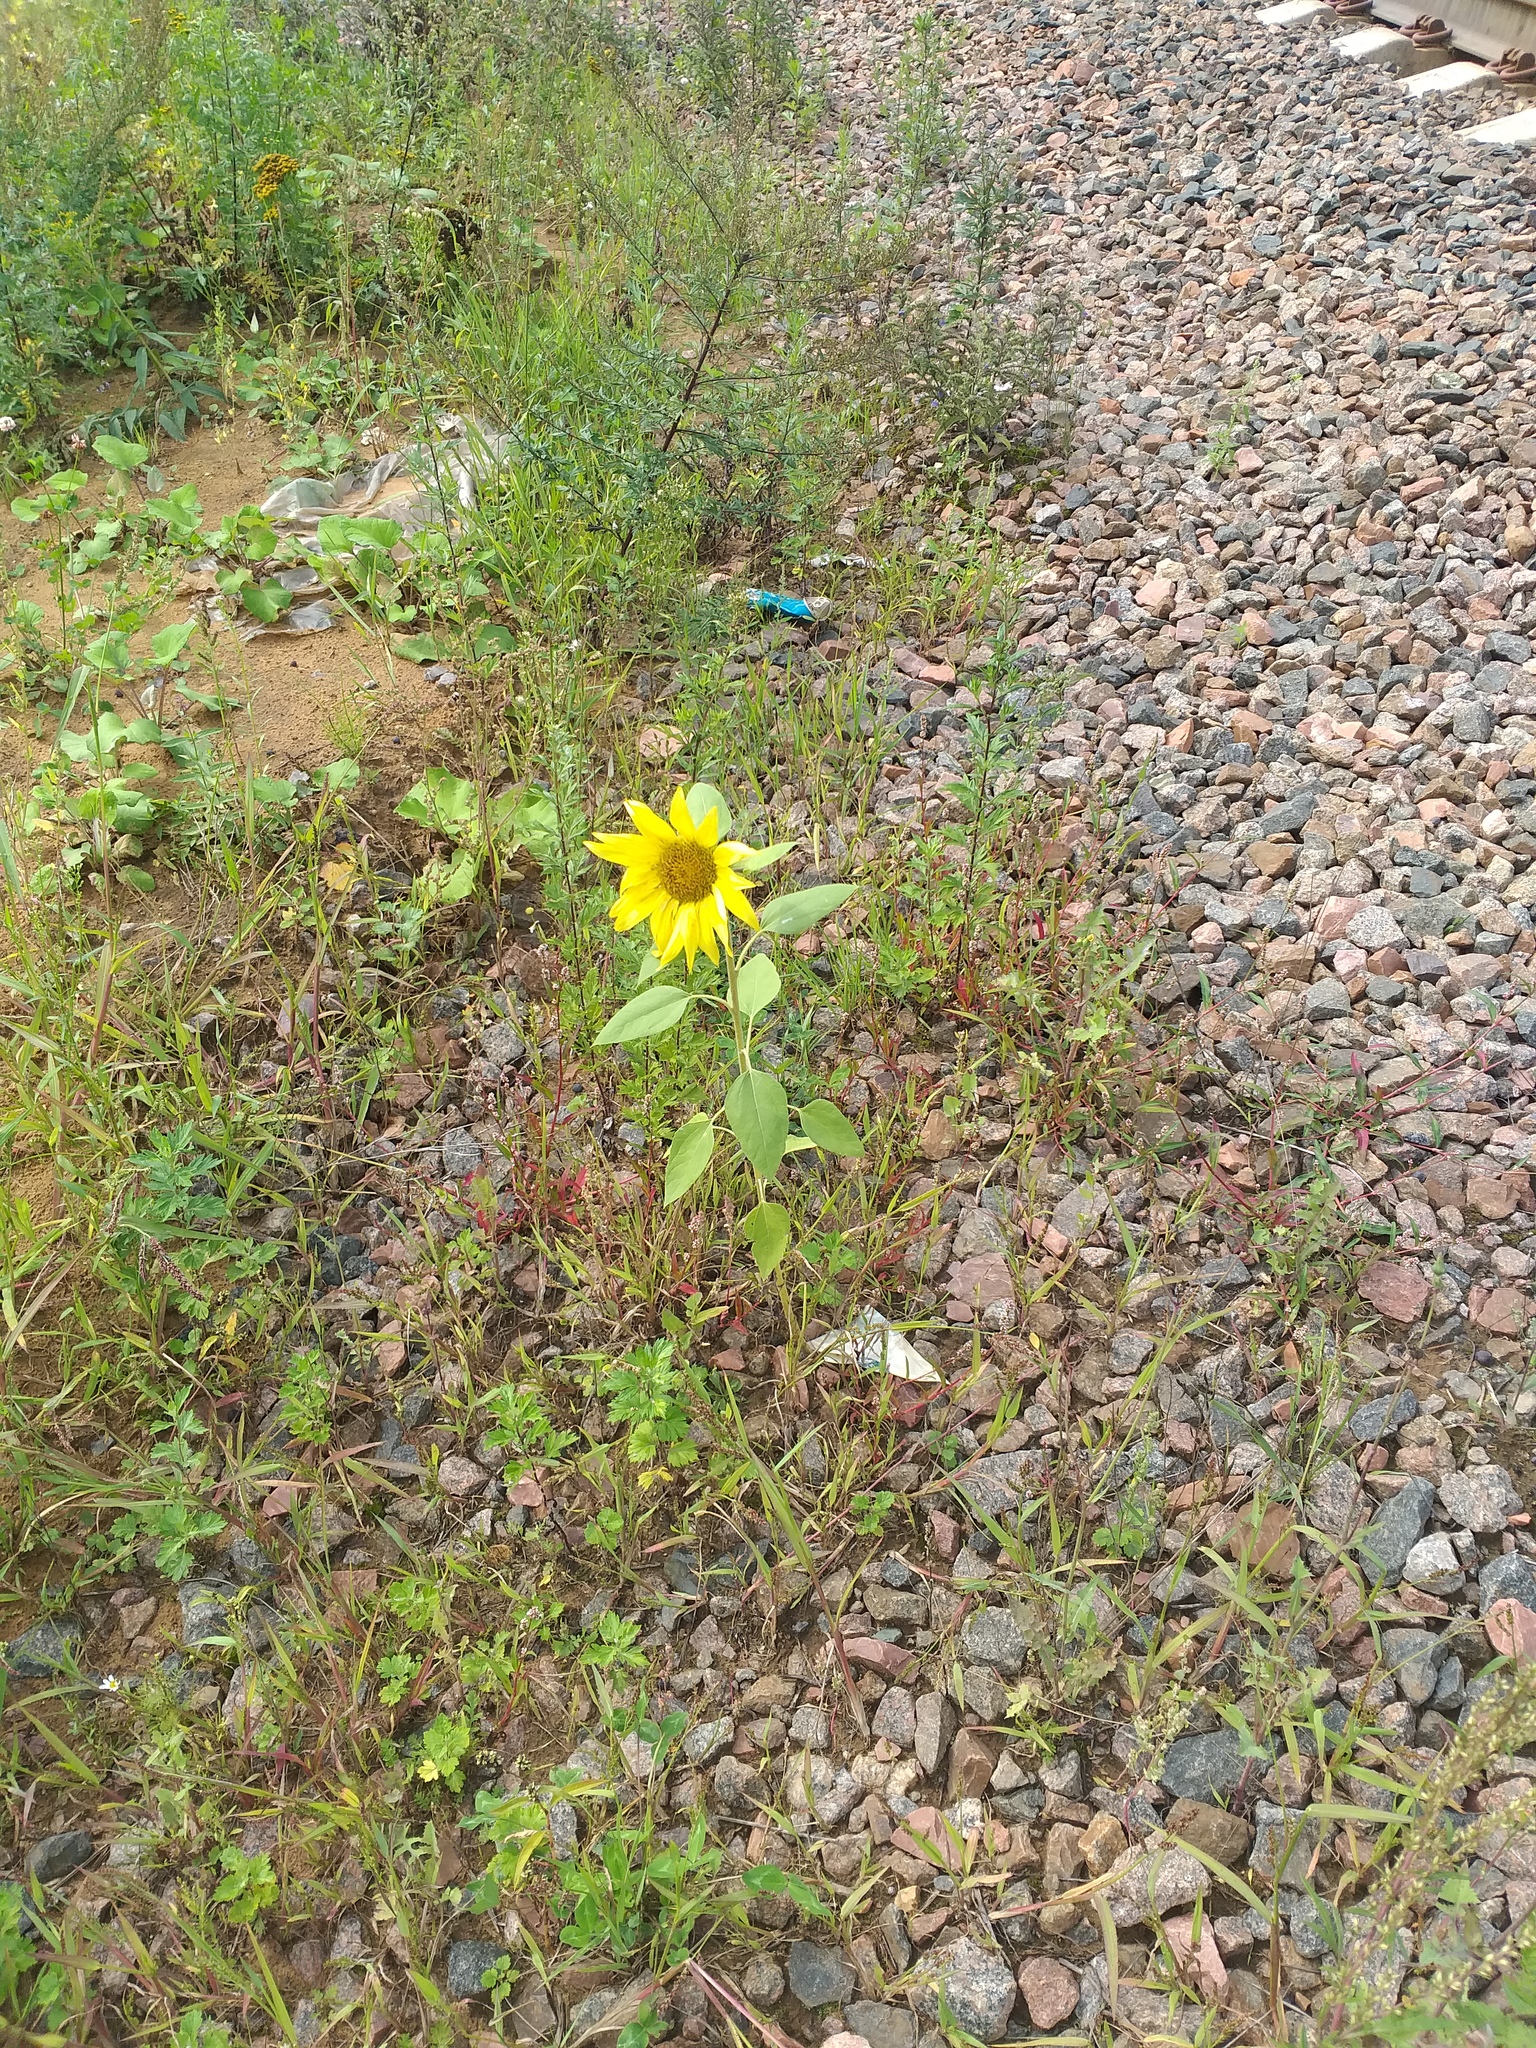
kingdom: Plantae
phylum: Tracheophyta
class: Magnoliopsida
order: Asterales
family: Asteraceae
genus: Helianthus
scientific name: Helianthus annuus
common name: Sunflower
